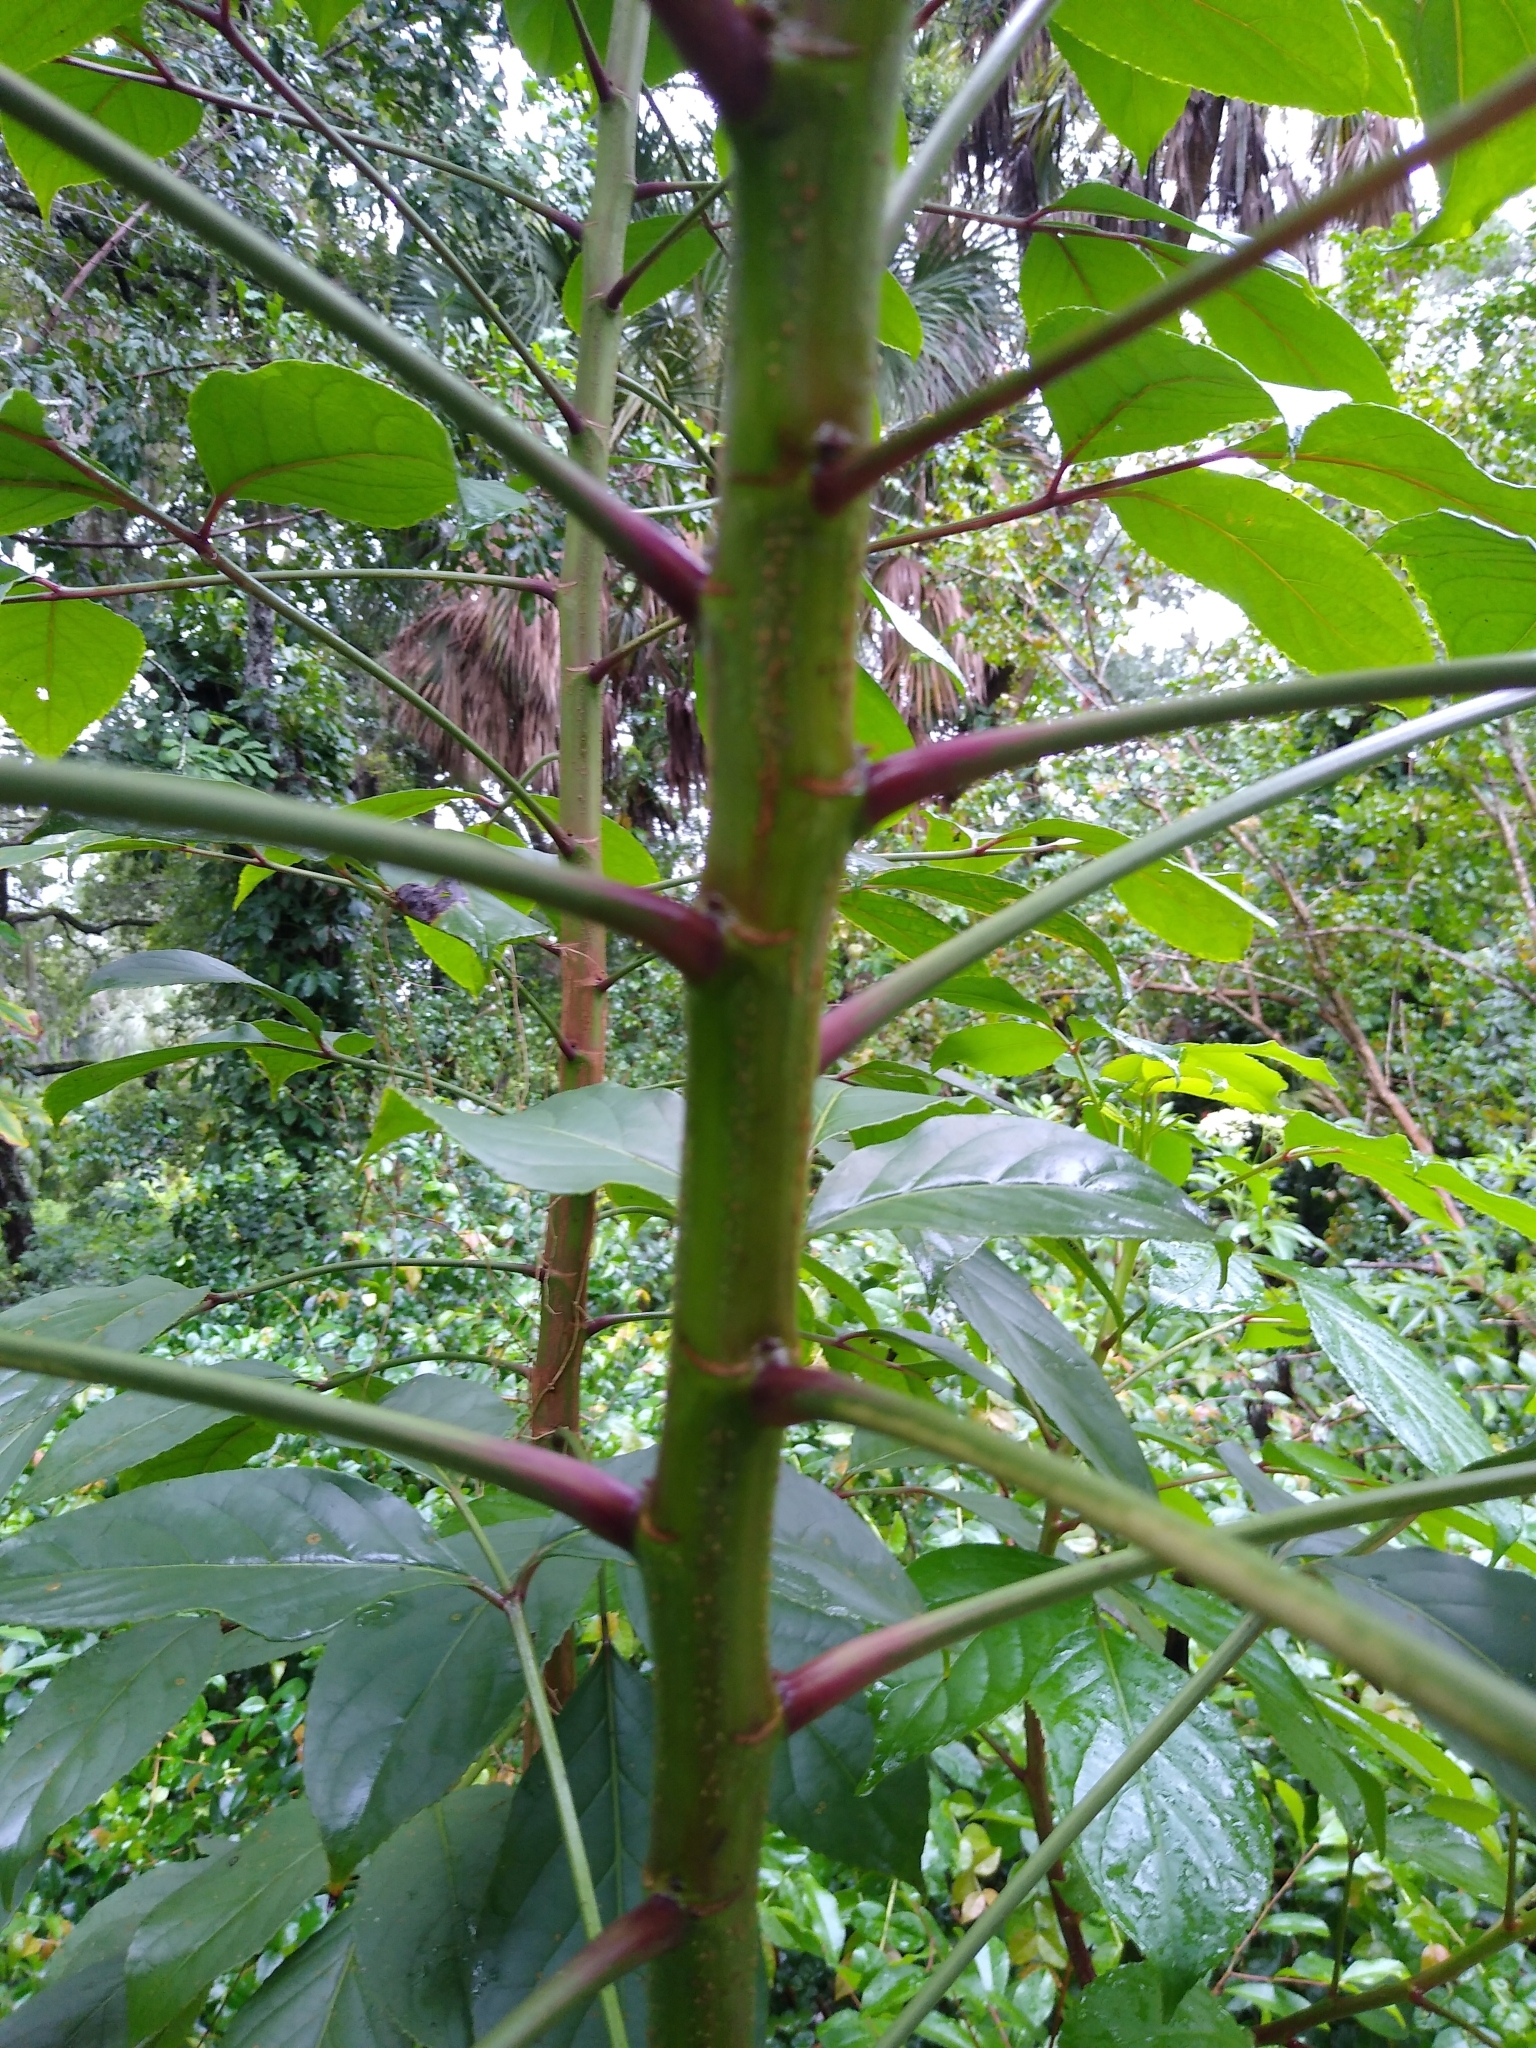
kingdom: Plantae
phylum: Tracheophyta
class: Magnoliopsida
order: Malpighiales
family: Phyllanthaceae
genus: Bischofia
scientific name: Bischofia javanica
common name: Javanese bishopwood
